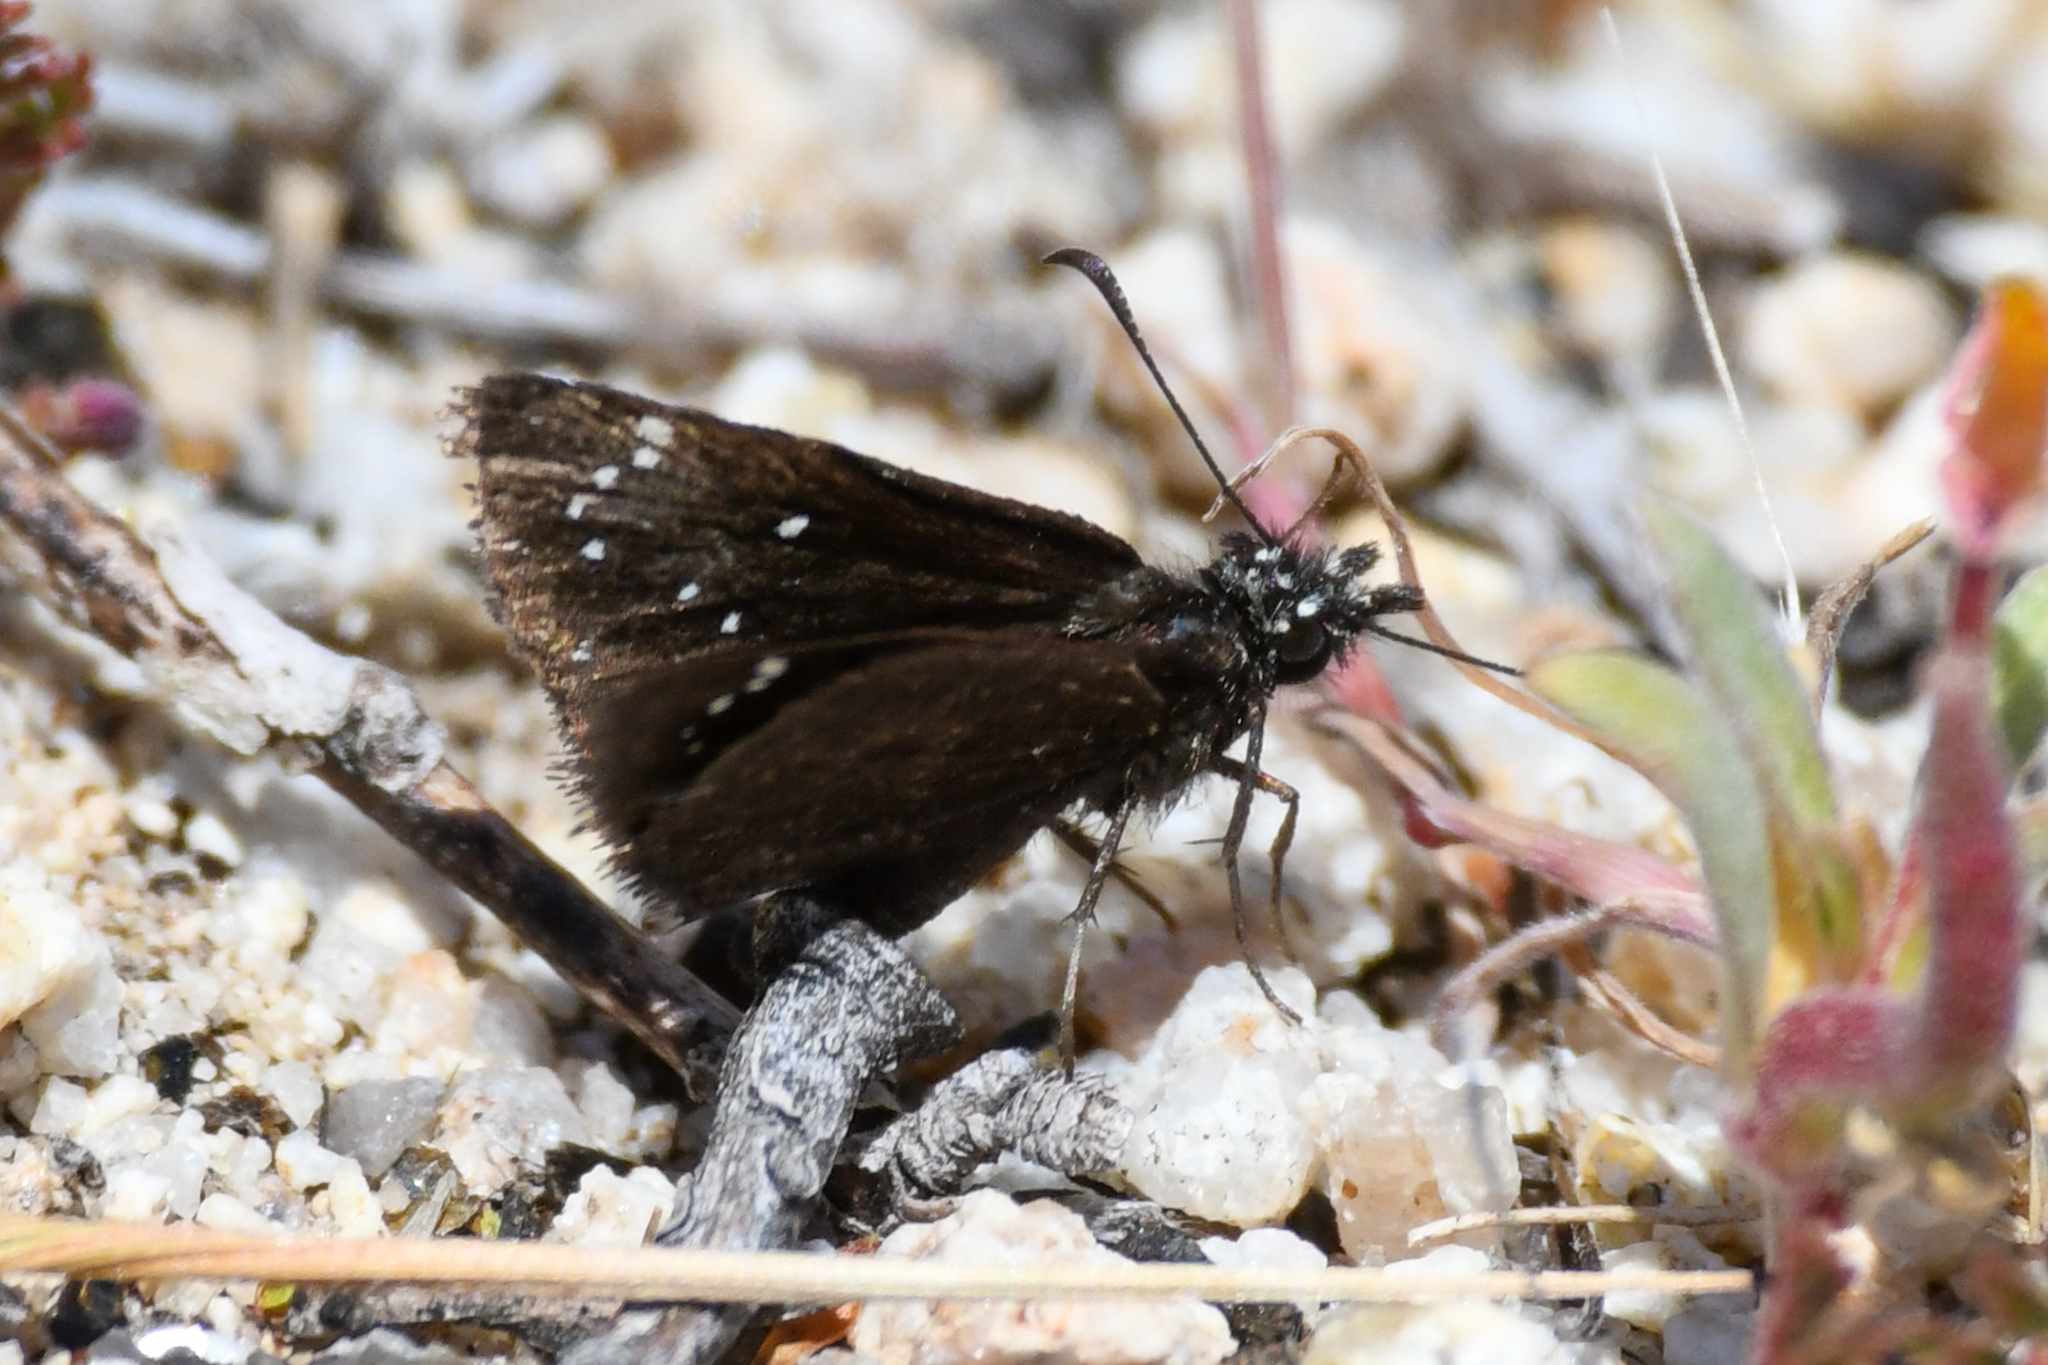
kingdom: Animalia
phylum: Arthropoda
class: Insecta
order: Lepidoptera
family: Hesperiidae
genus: Pholisora
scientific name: Pholisora catullus
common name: Common sootywing
